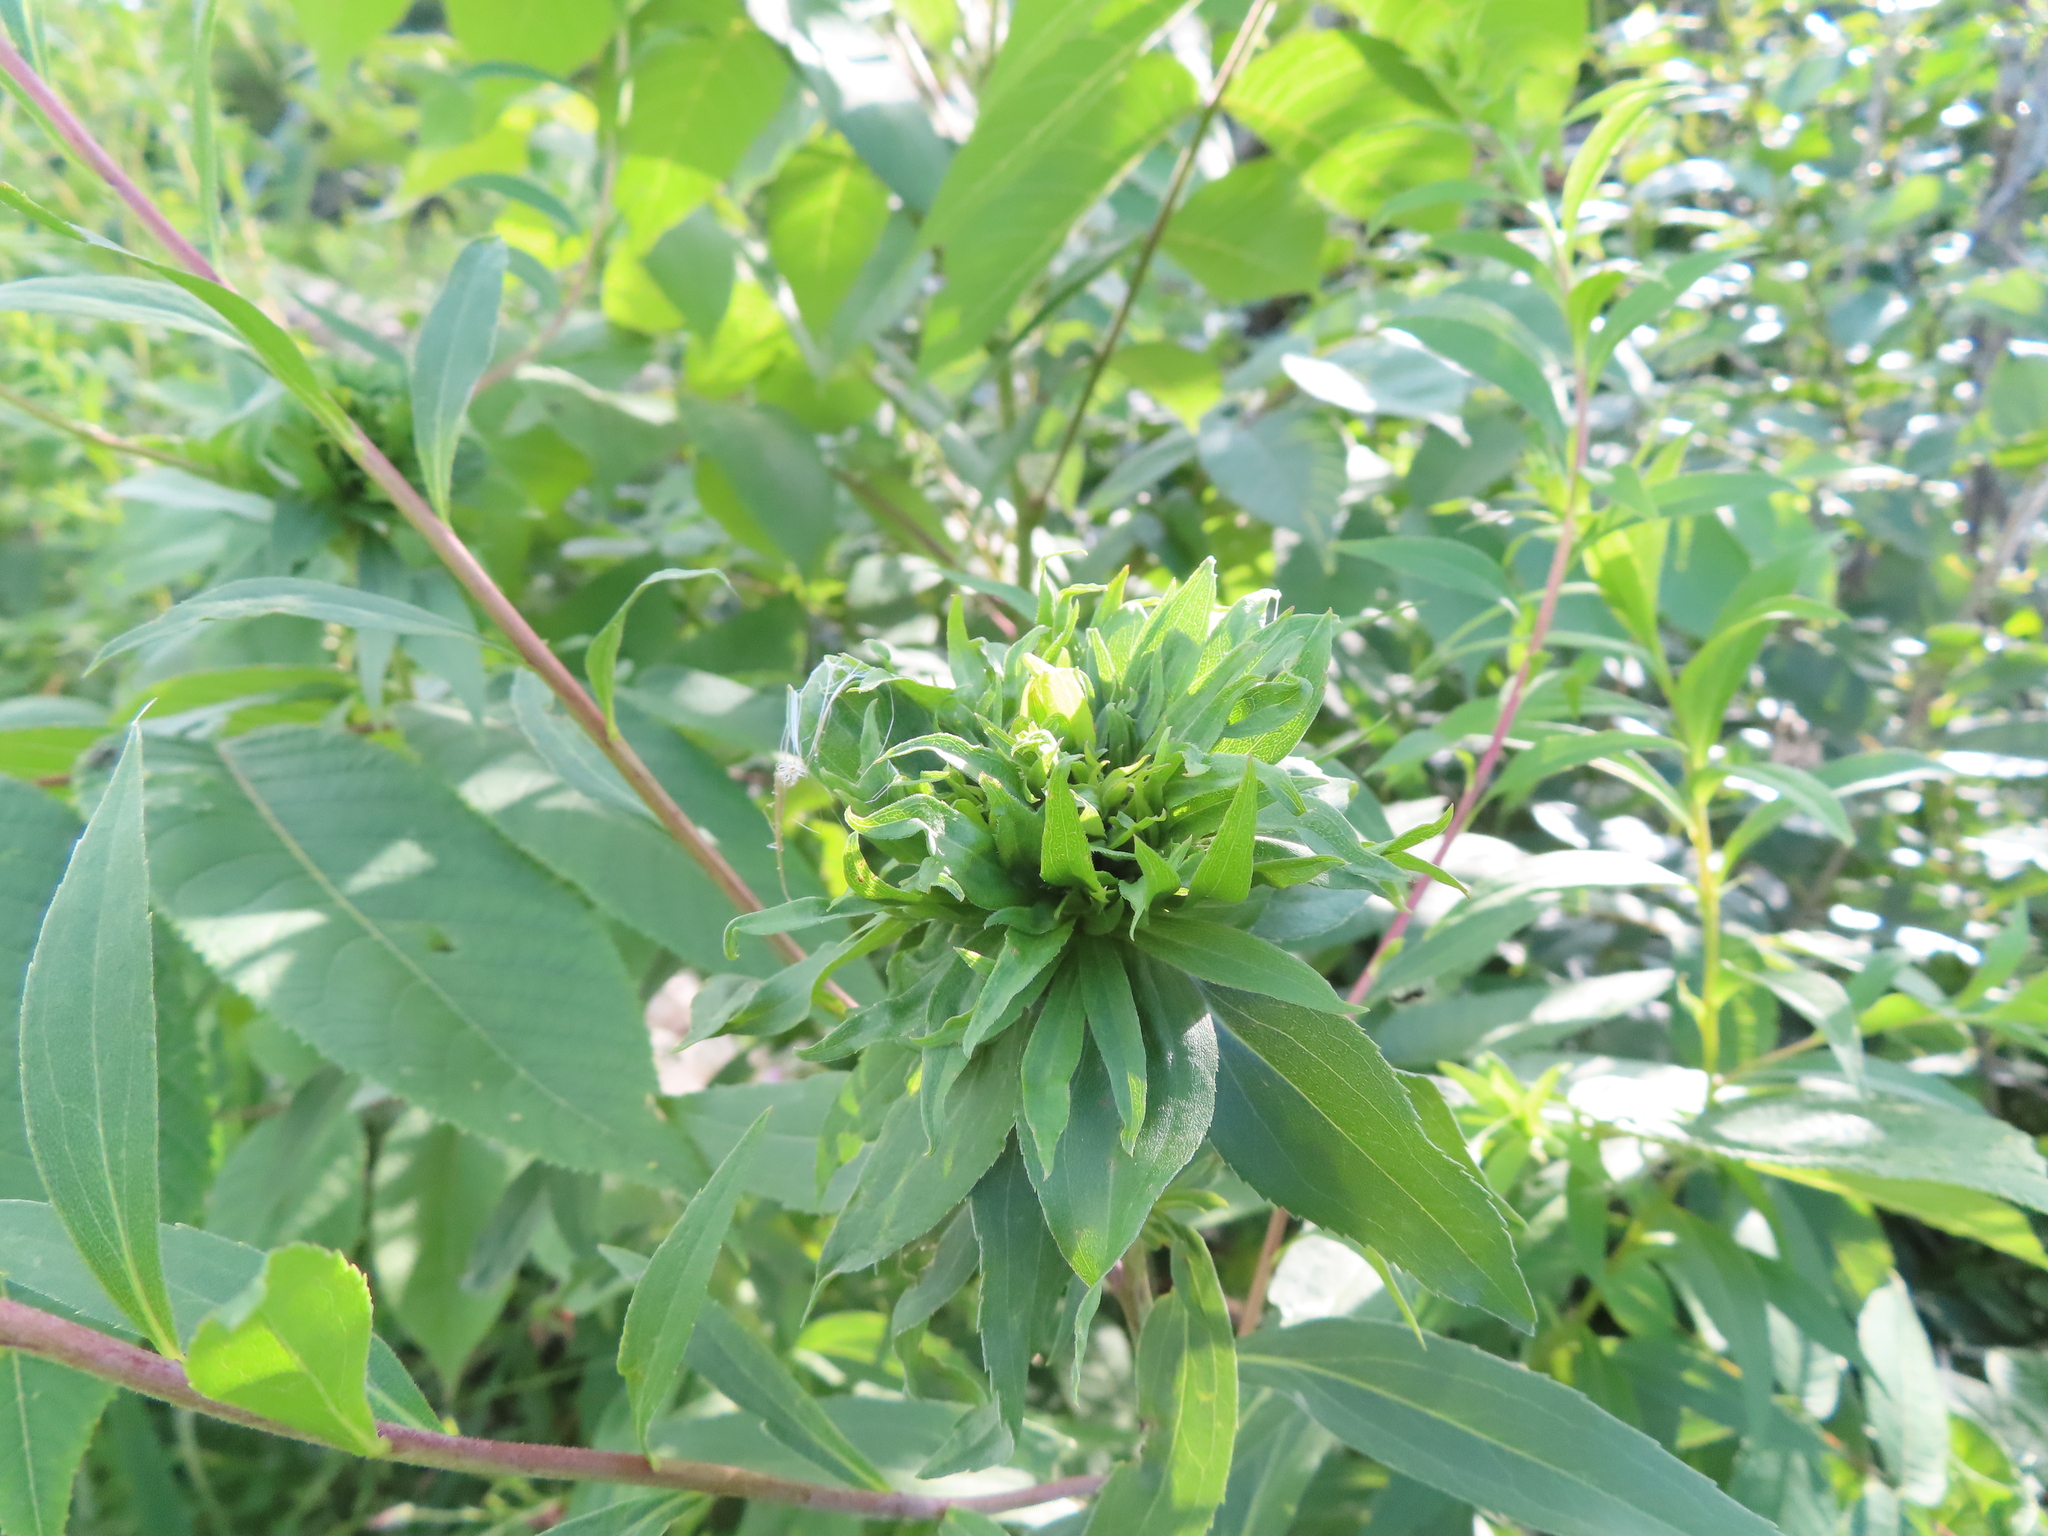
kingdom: Animalia
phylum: Arthropoda
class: Insecta
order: Diptera
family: Cecidomyiidae
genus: Rhopalomyia
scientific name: Rhopalomyia capitata
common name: Giant goldenrod bunch gall midge
